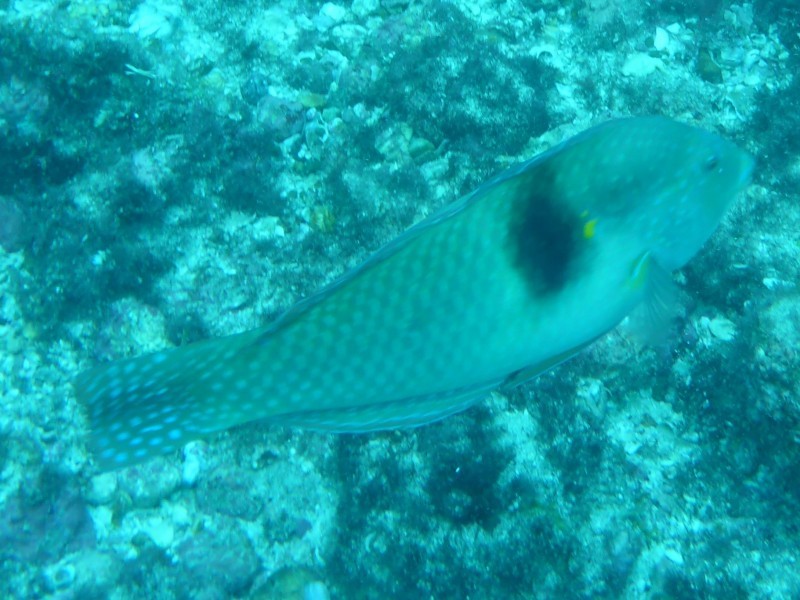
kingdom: Animalia
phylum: Chordata
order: Perciformes
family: Labridae
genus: Halichoeres
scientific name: Halichoeres nicholsi
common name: Spinster wrasse
